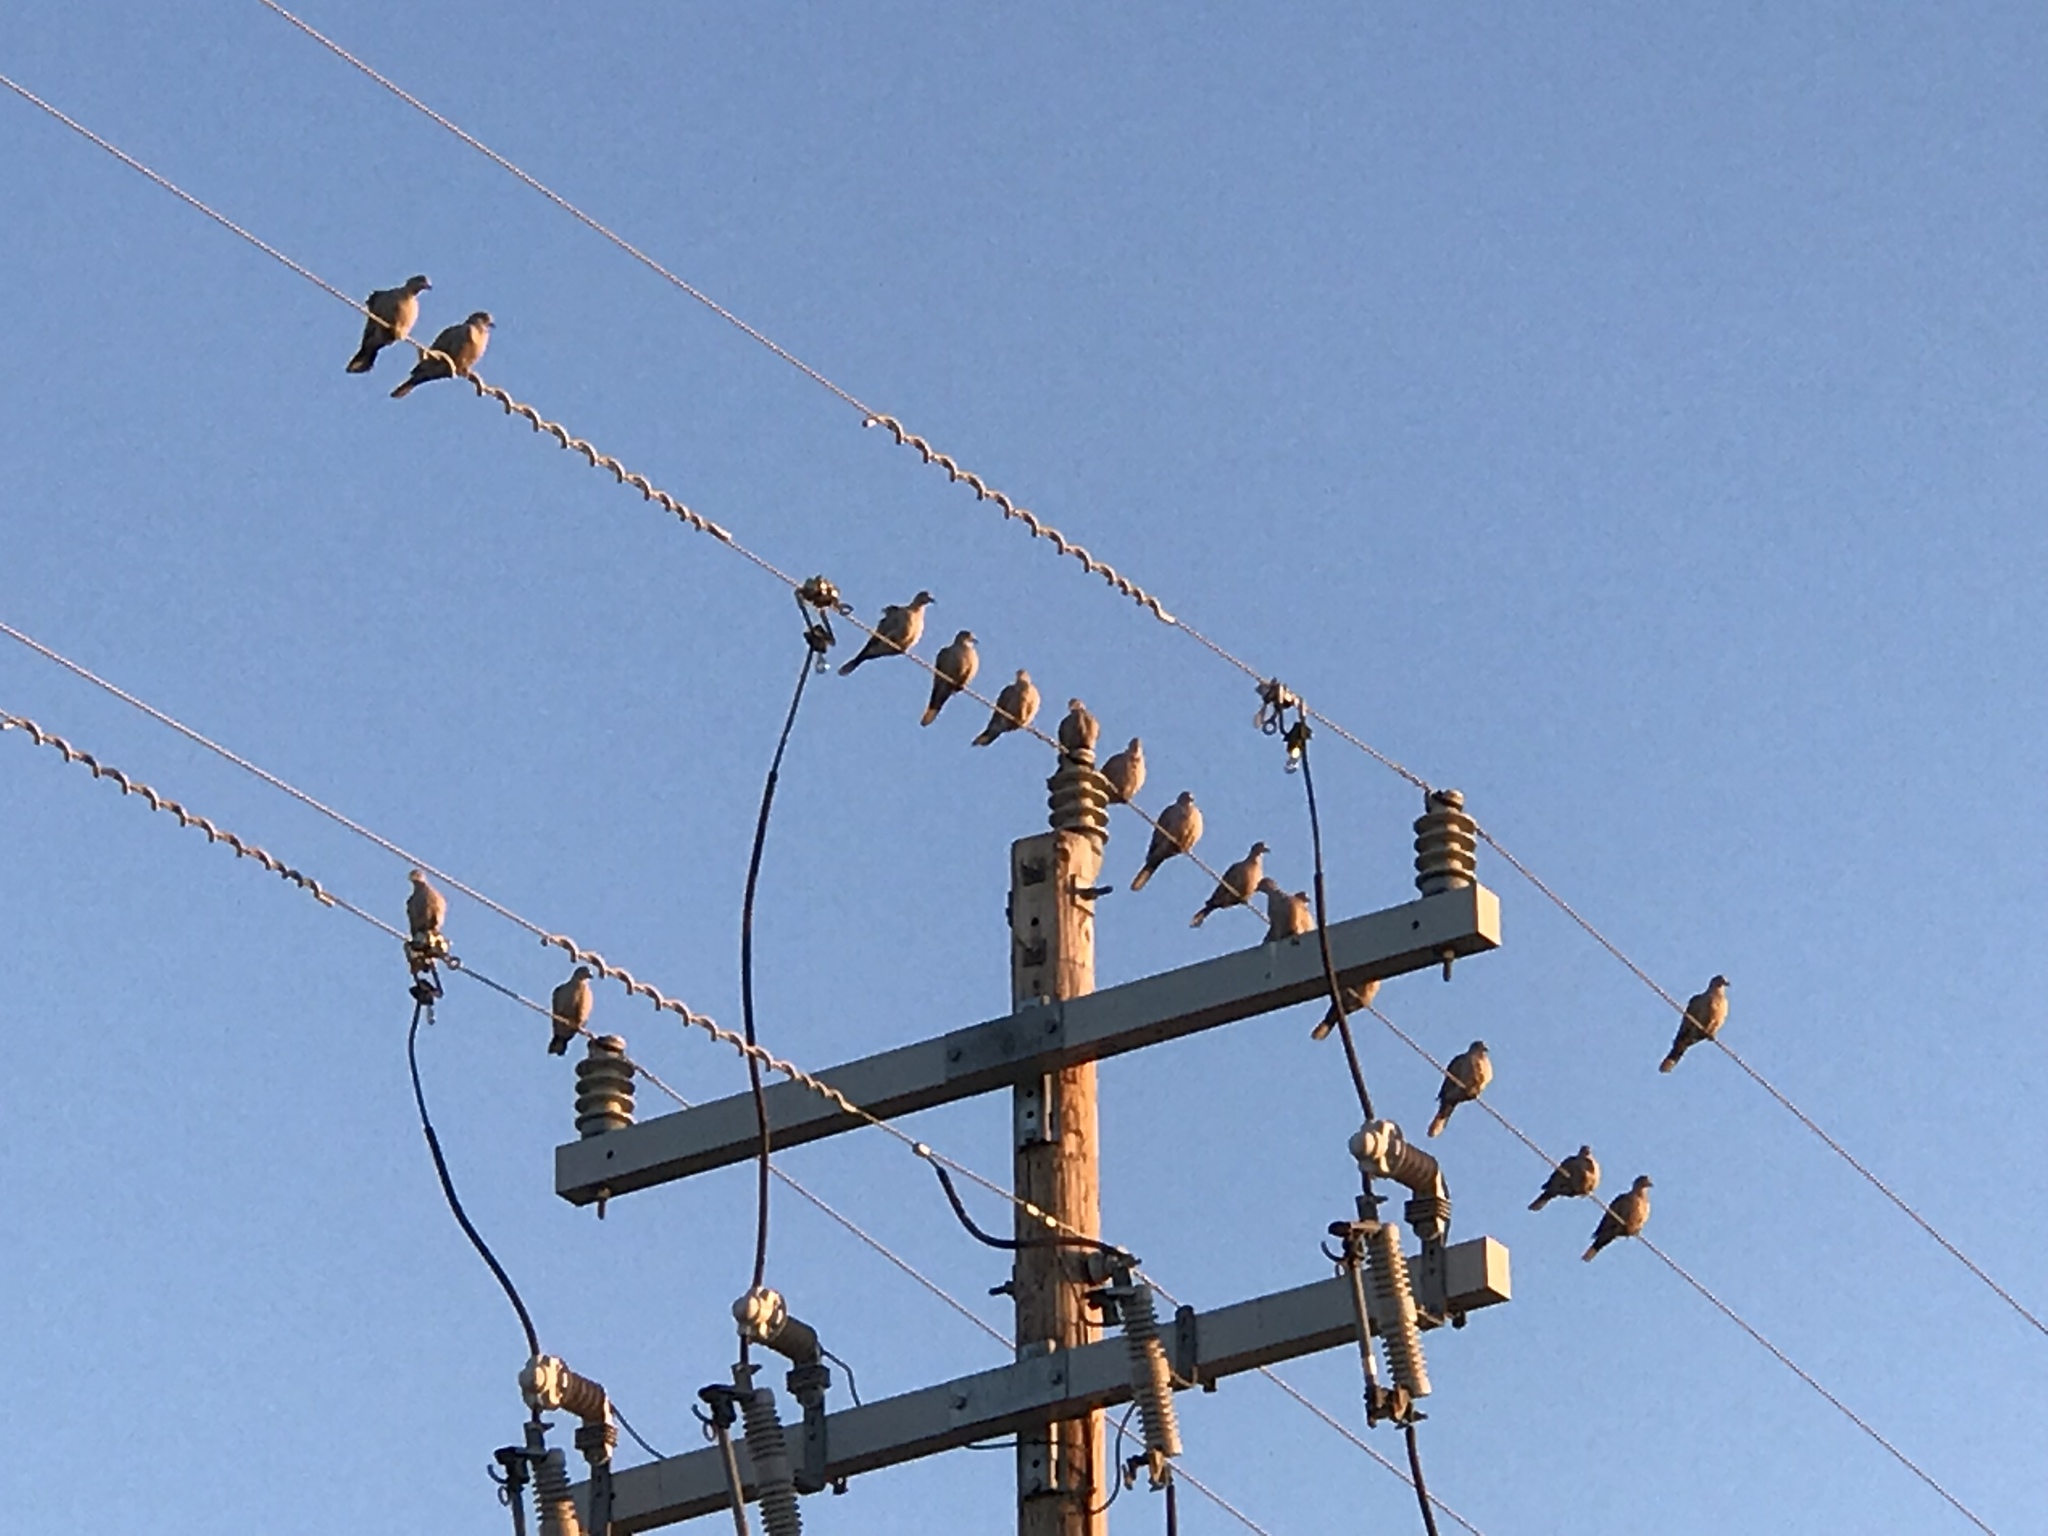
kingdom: Animalia
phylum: Chordata
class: Aves
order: Columbiformes
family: Columbidae
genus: Zenaida
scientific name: Zenaida macroura
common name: Mourning dove
